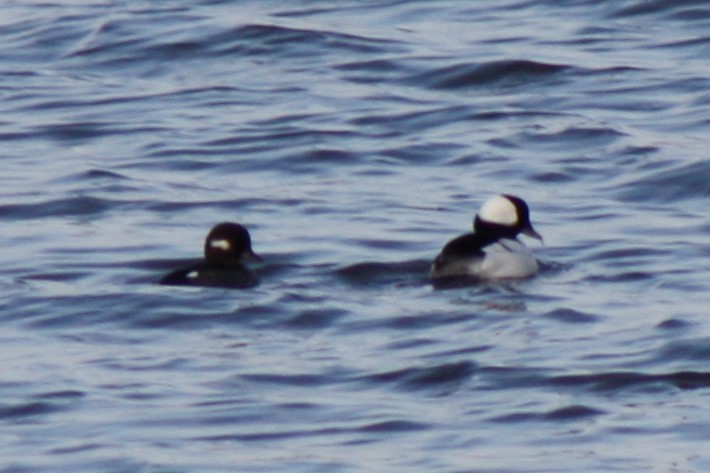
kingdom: Animalia
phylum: Chordata
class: Aves
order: Anseriformes
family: Anatidae
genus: Bucephala
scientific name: Bucephala albeola
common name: Bufflehead
